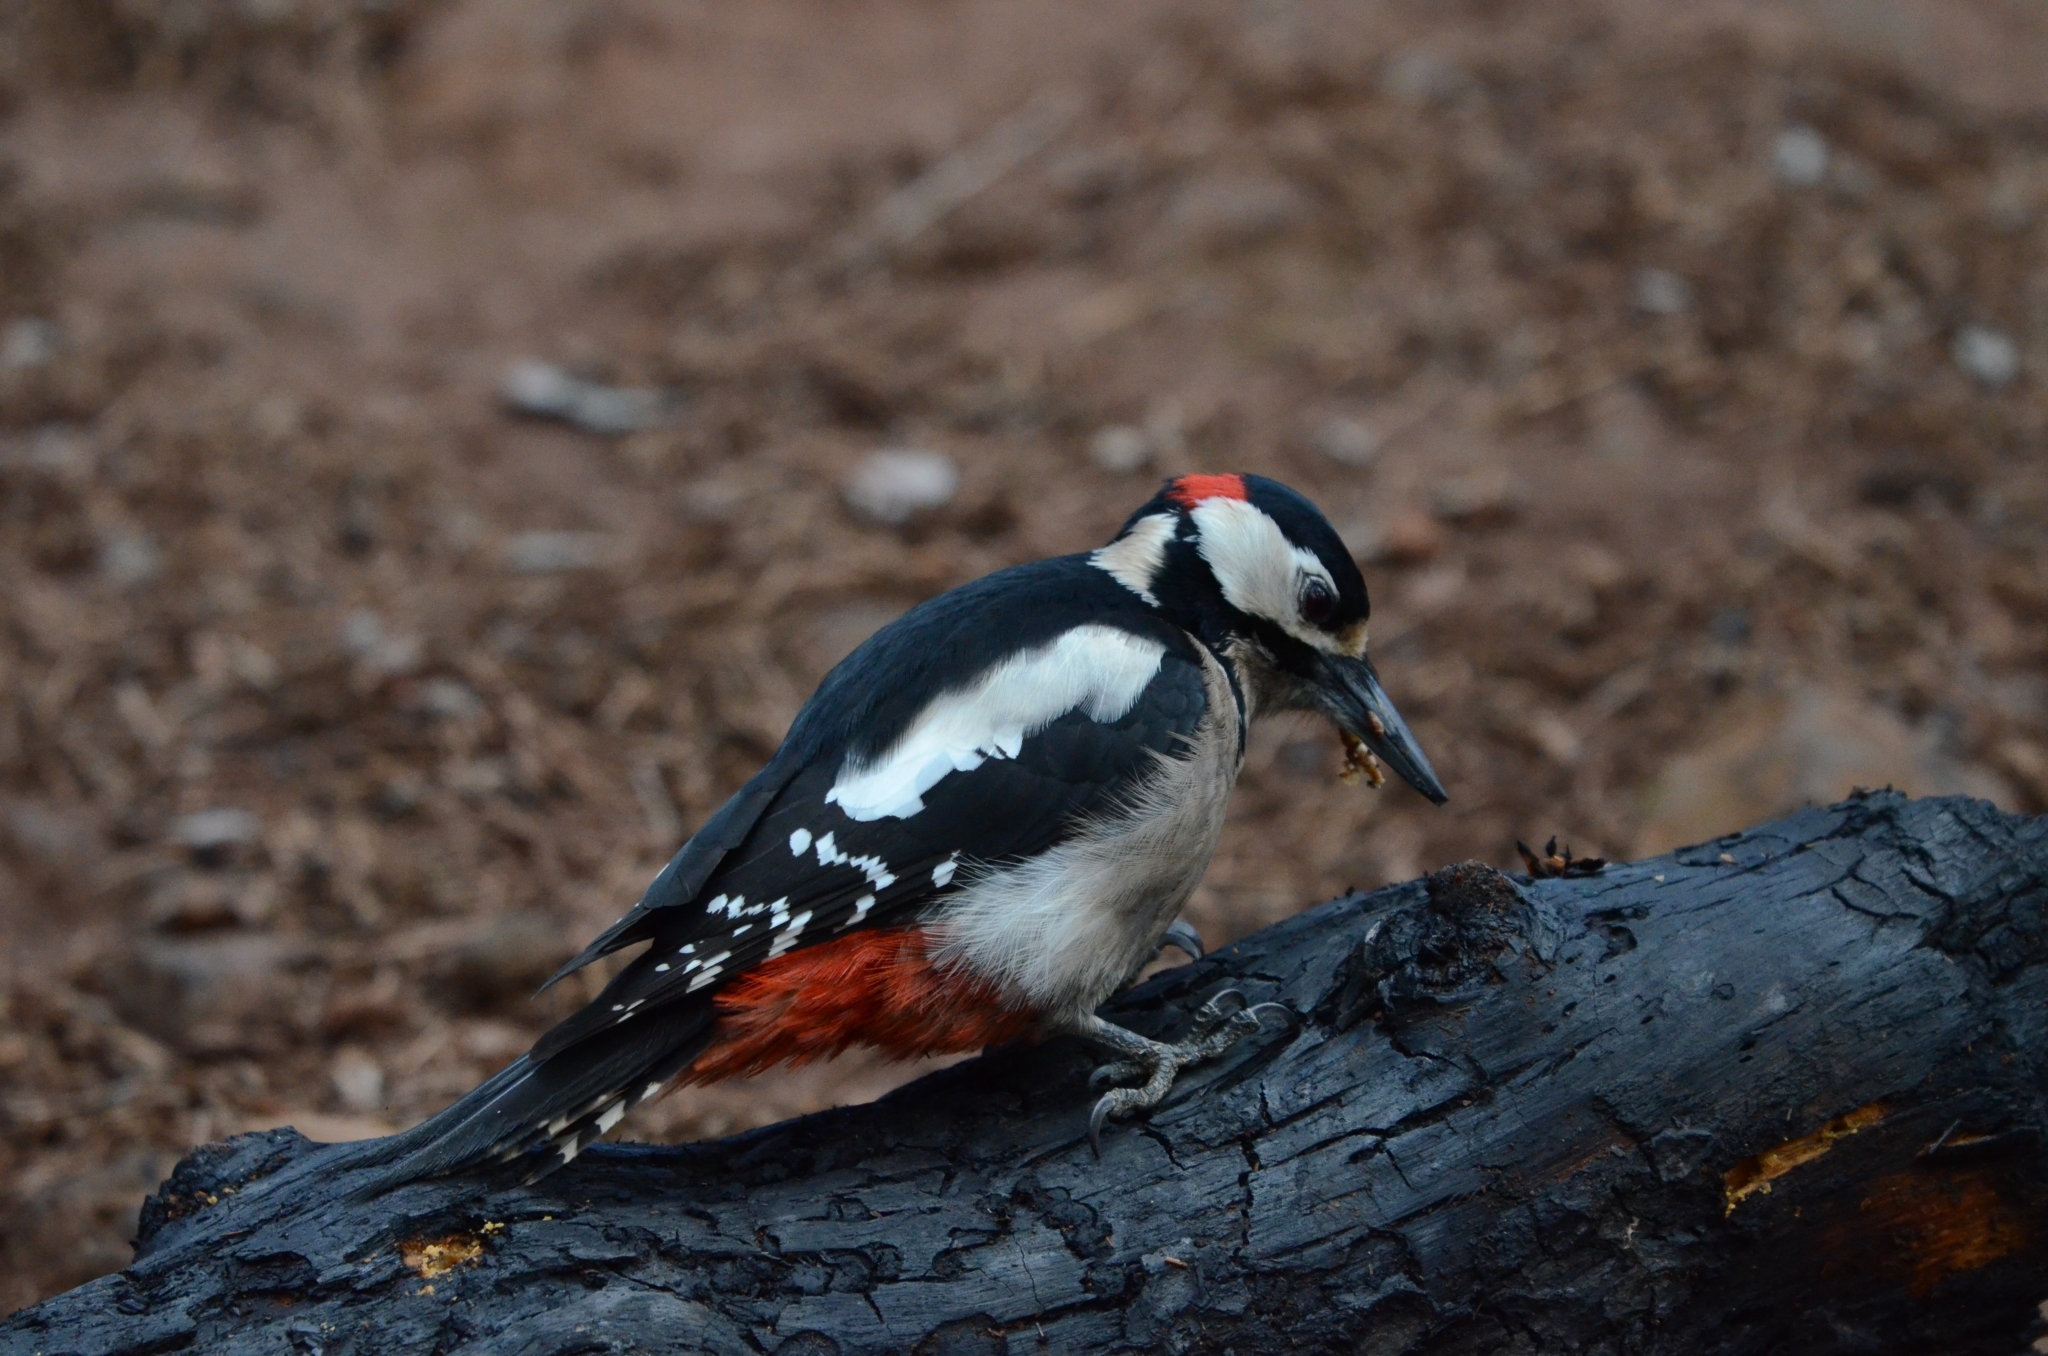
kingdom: Animalia
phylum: Chordata
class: Aves
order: Piciformes
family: Picidae
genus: Dendrocopos
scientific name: Dendrocopos major
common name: Great spotted woodpecker
